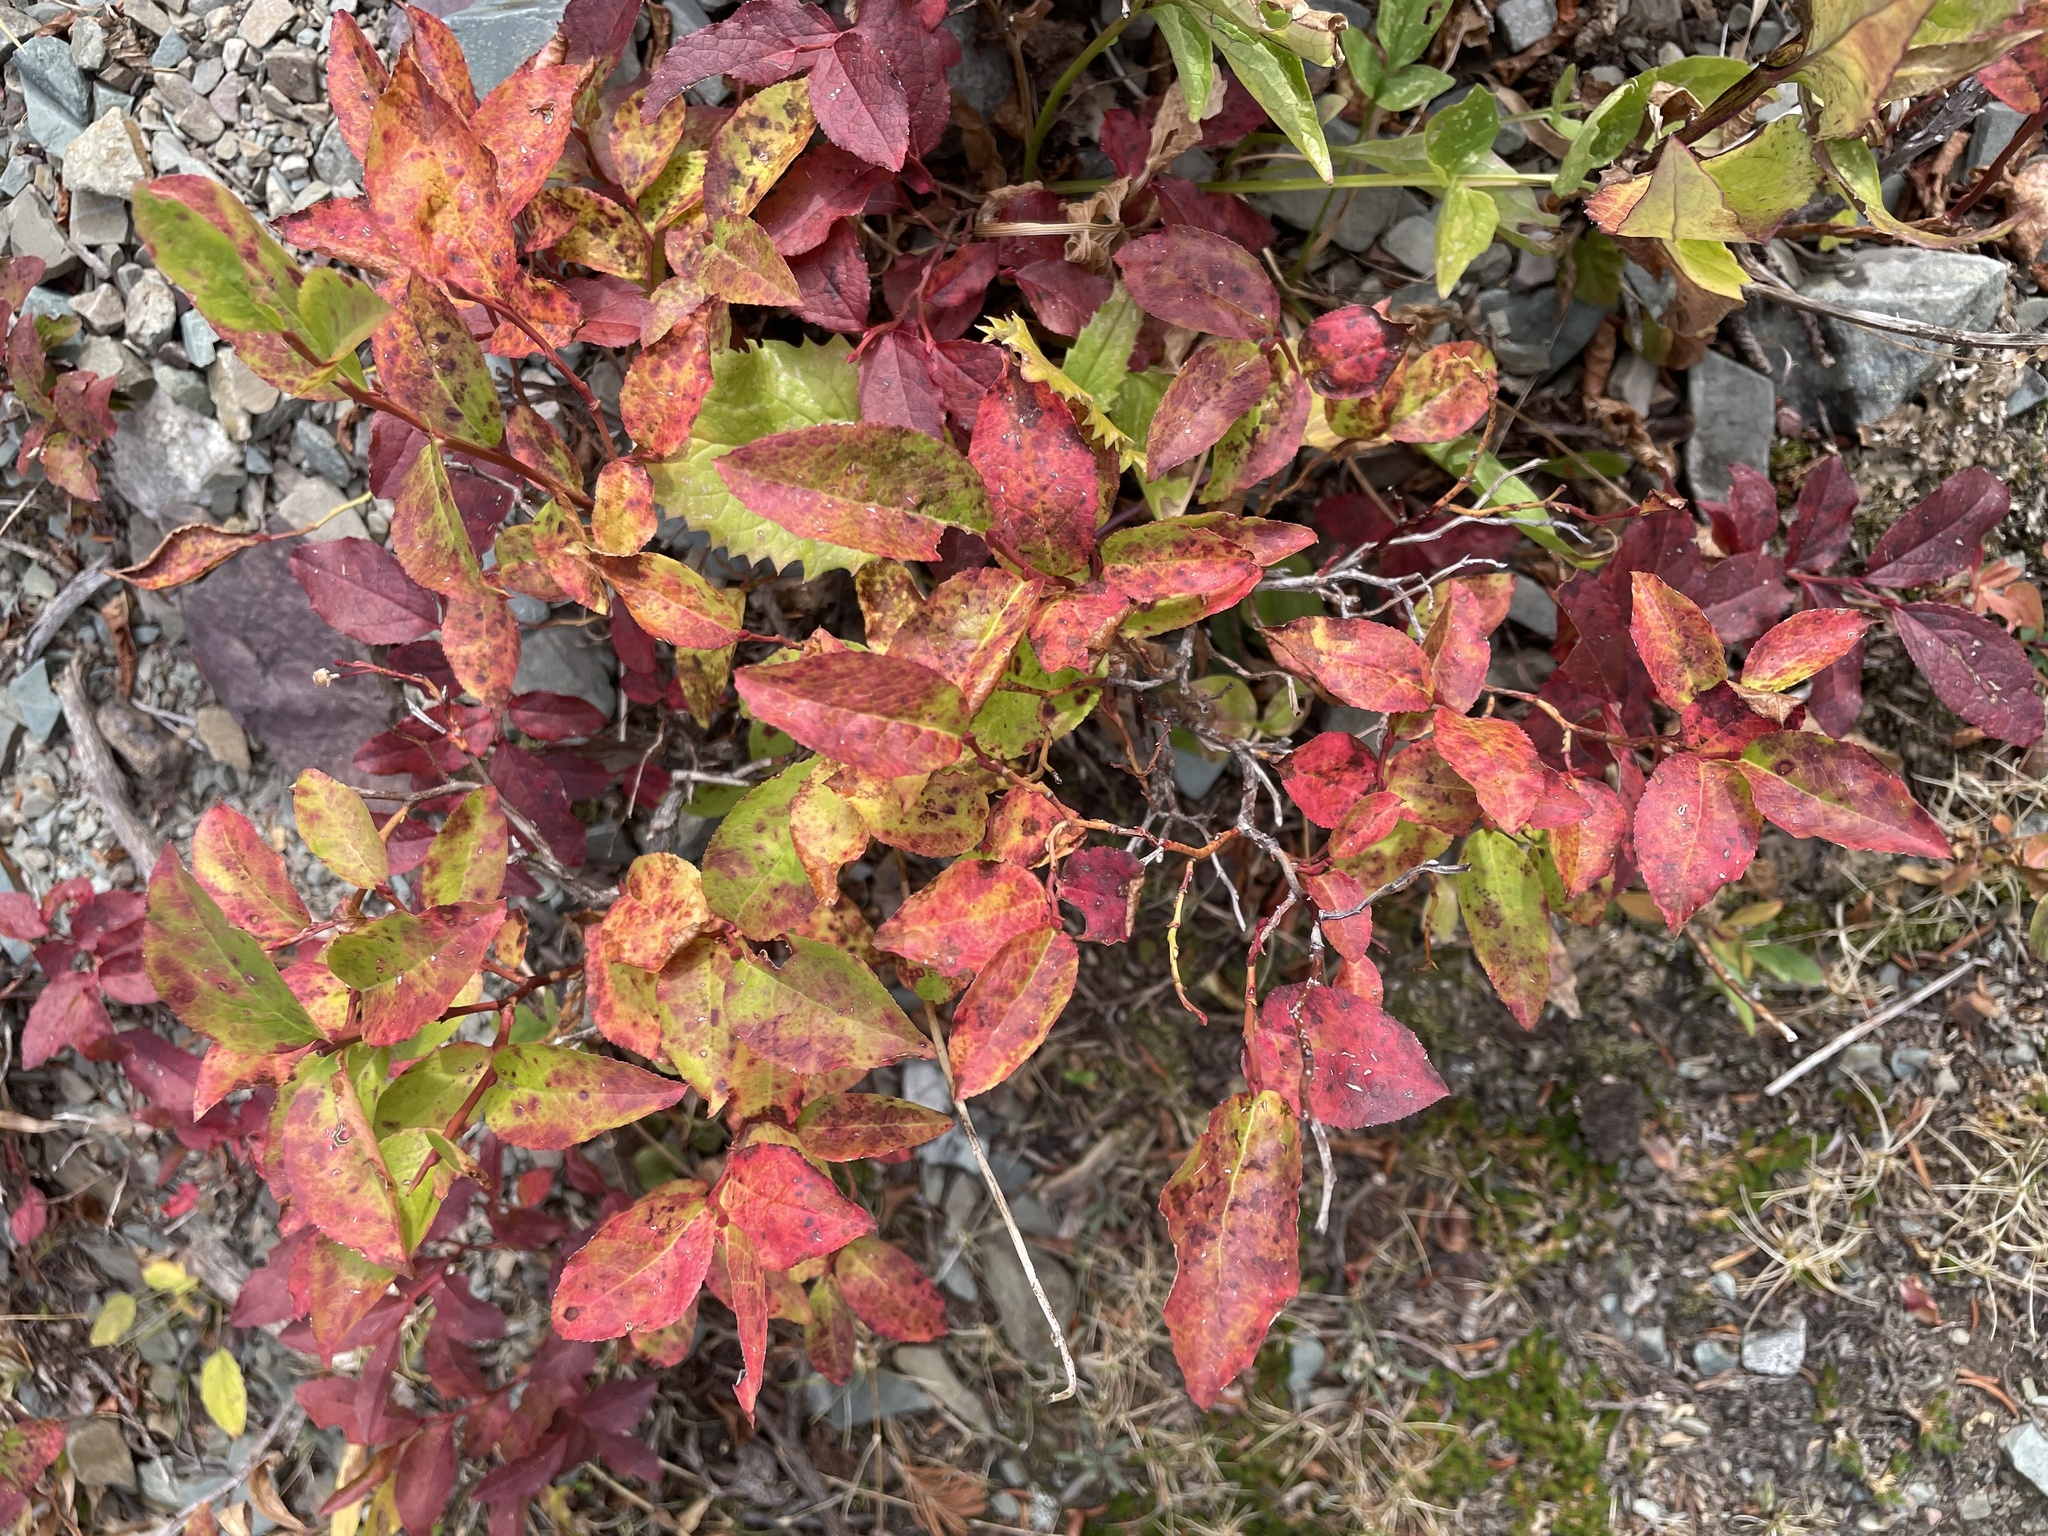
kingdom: Plantae
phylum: Tracheophyta
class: Magnoliopsida
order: Ericales
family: Ericaceae
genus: Vaccinium
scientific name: Vaccinium membranaceum
